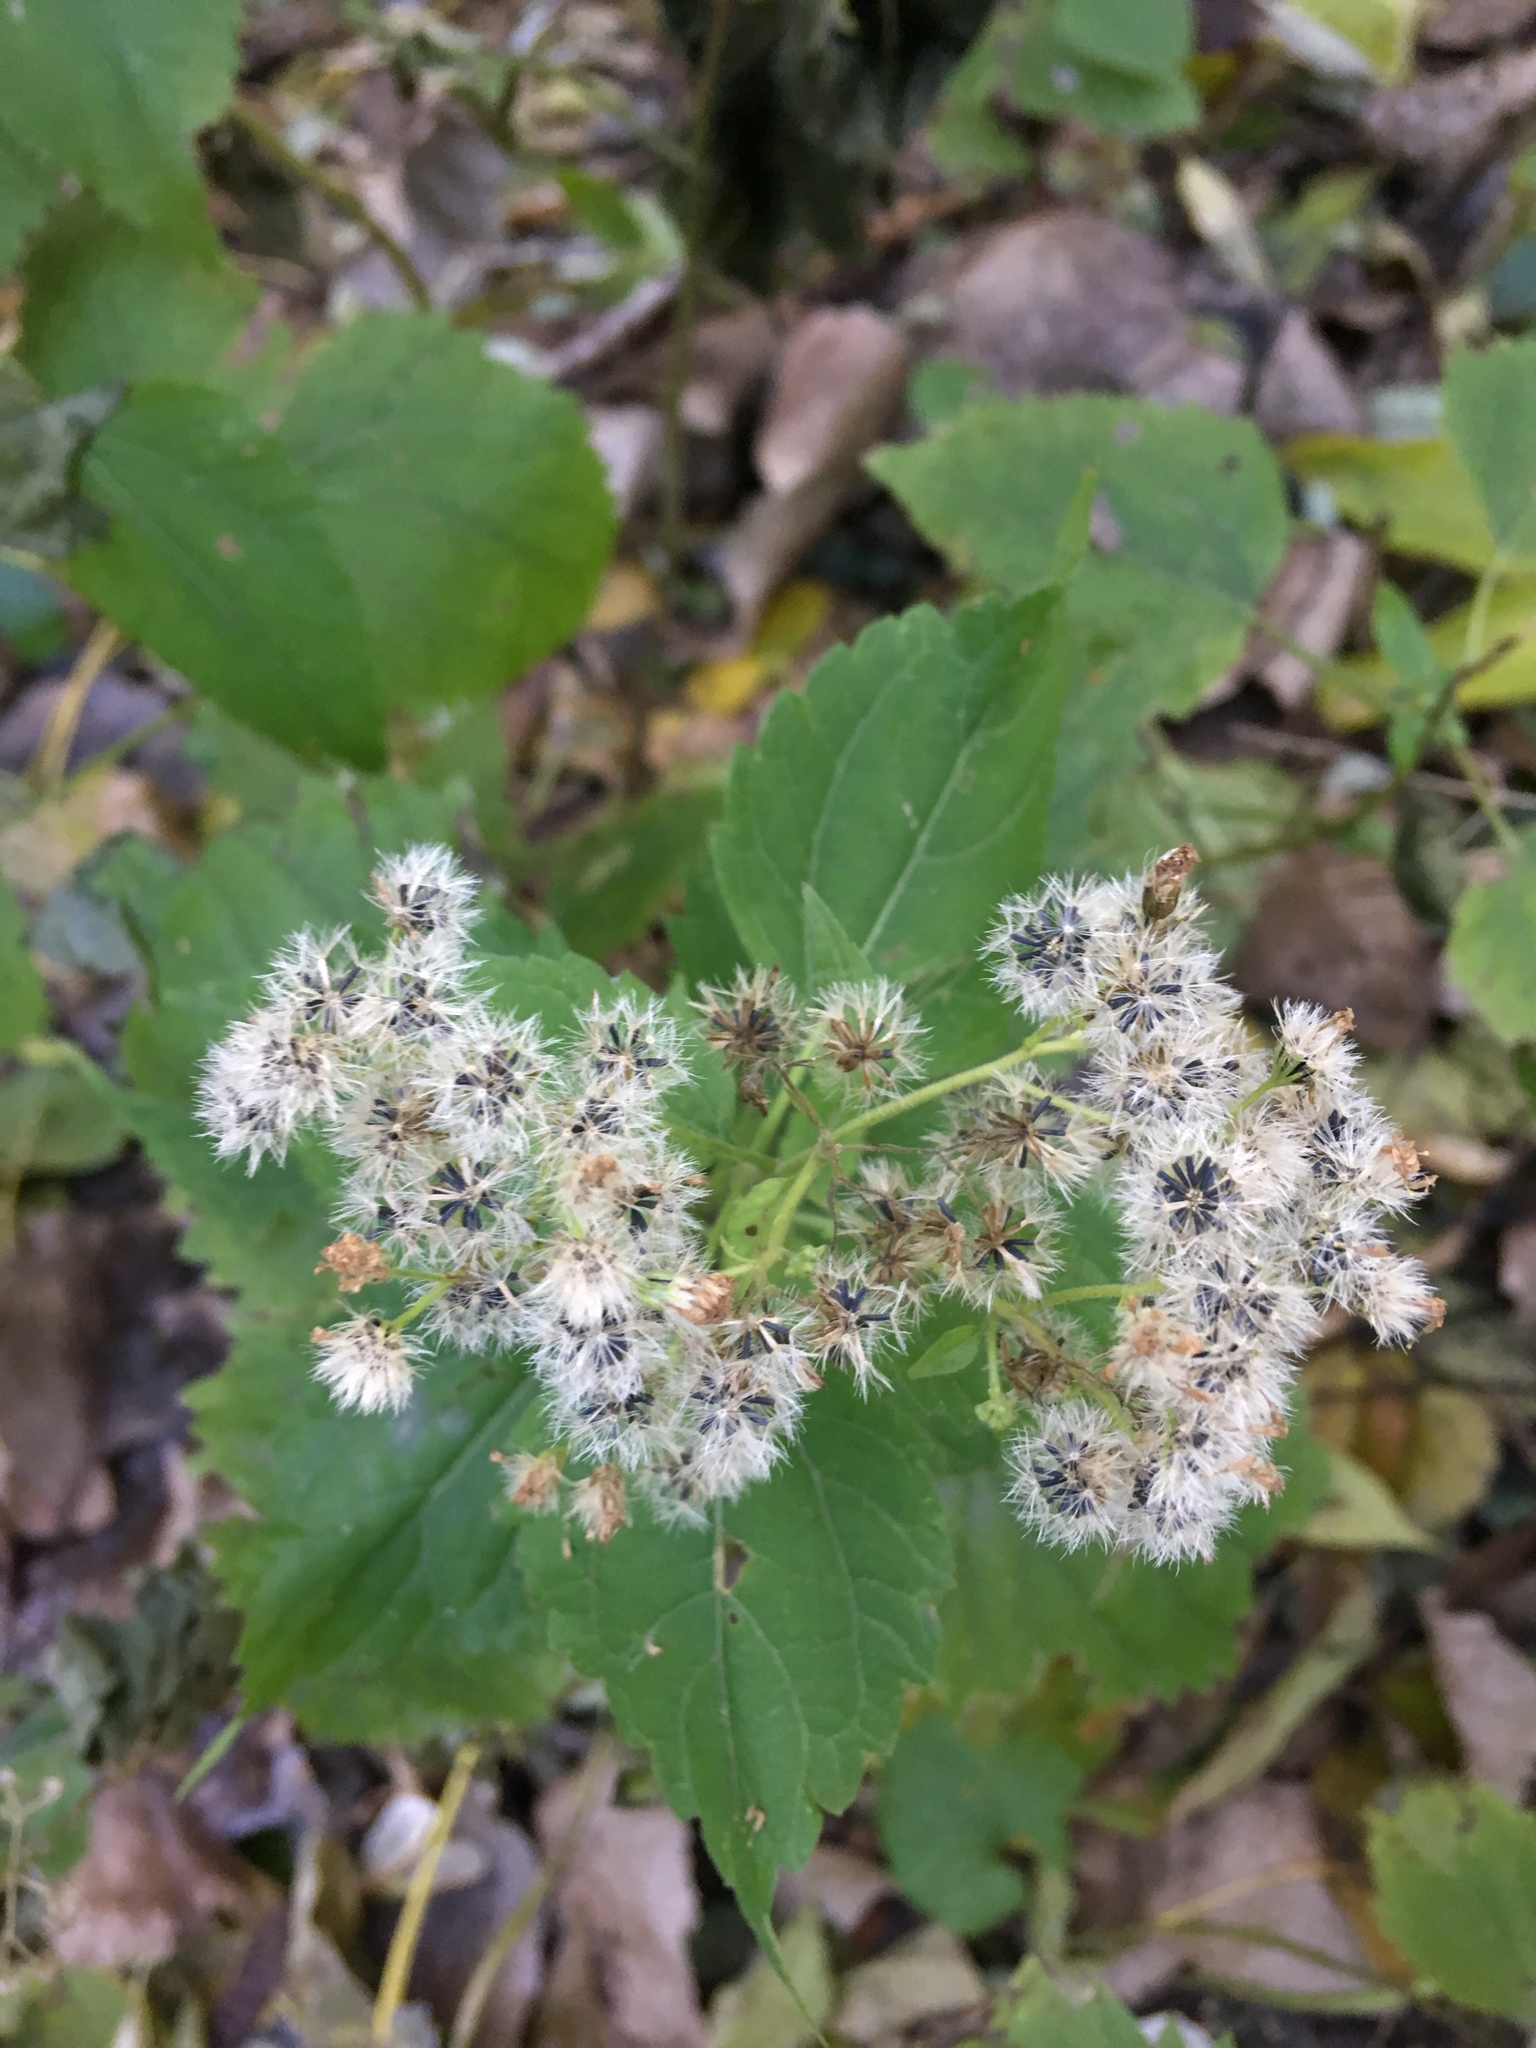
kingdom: Plantae
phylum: Tracheophyta
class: Magnoliopsida
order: Asterales
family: Asteraceae
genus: Ageratina
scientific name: Ageratina altissima
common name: White snakeroot
